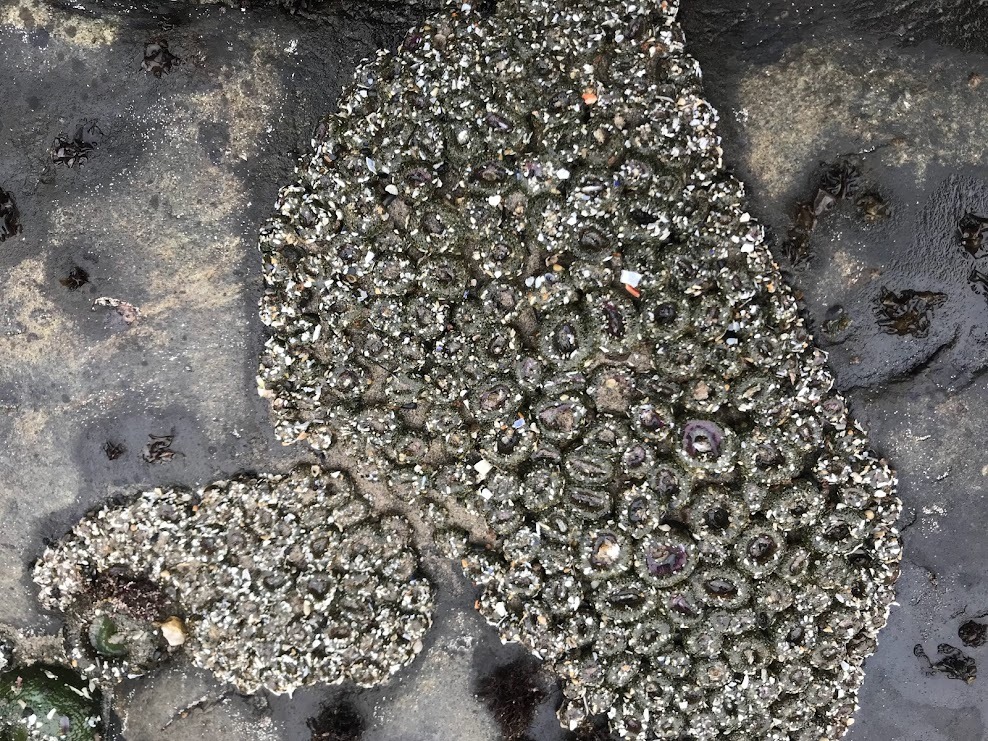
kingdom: Animalia
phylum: Cnidaria
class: Anthozoa
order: Actiniaria
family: Actiniidae
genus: Anthopleura
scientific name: Anthopleura elegantissima
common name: Clonal anemone
